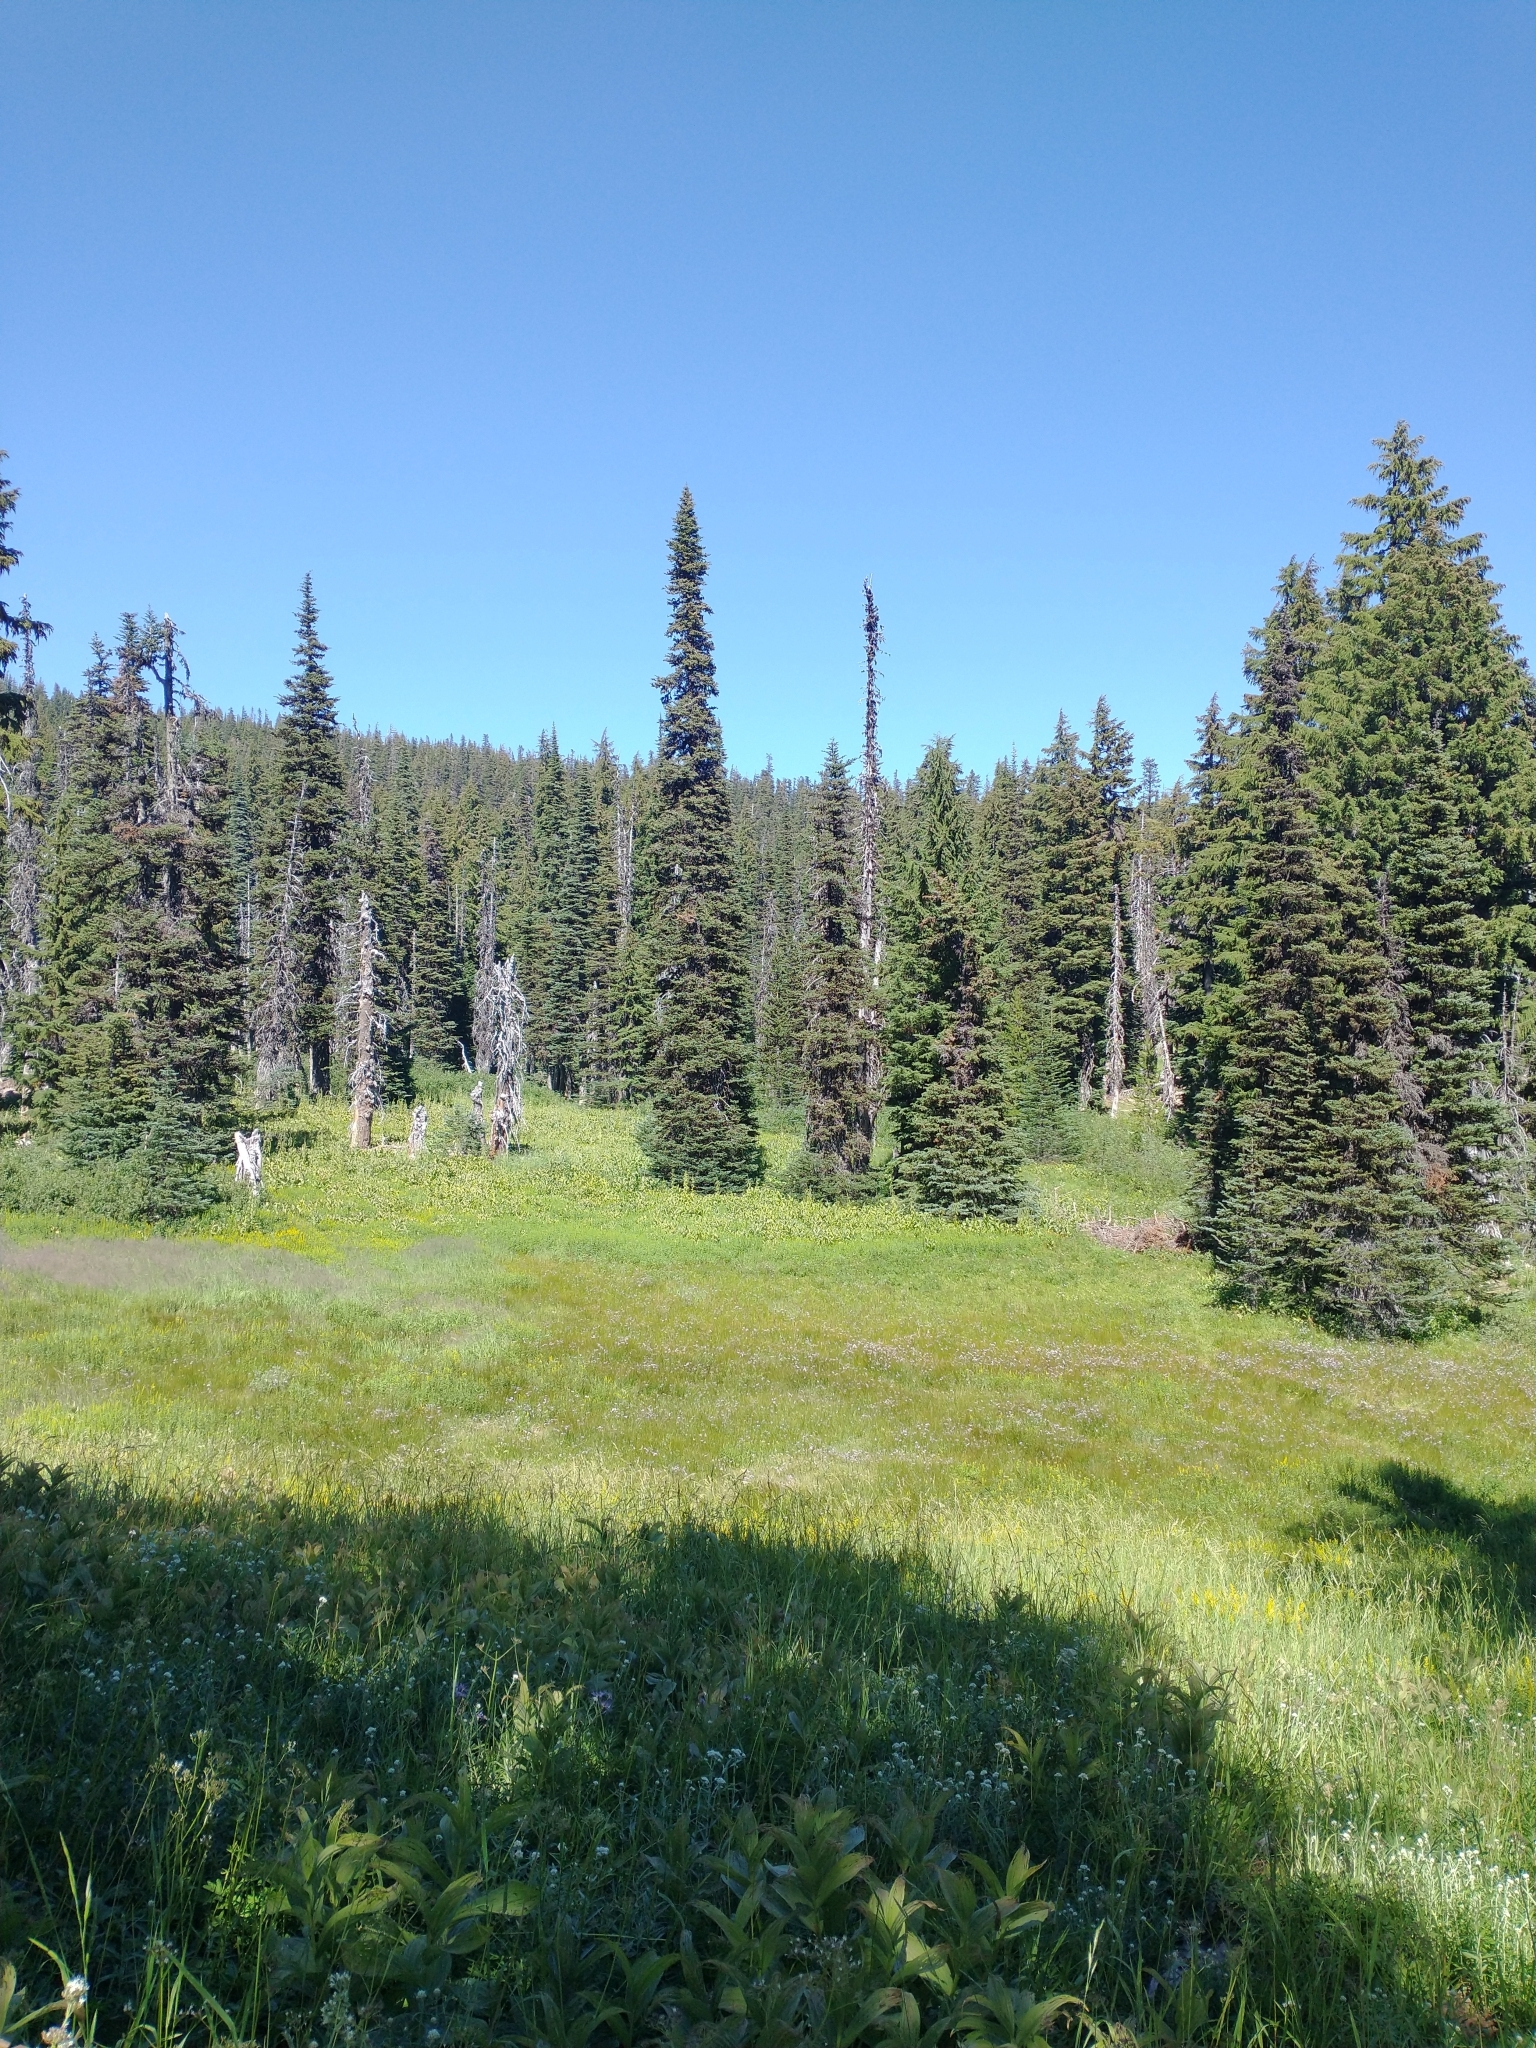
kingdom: Plantae
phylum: Tracheophyta
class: Liliopsida
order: Liliales
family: Melanthiaceae
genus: Veratrum
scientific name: Veratrum viride
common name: American false hellebore
